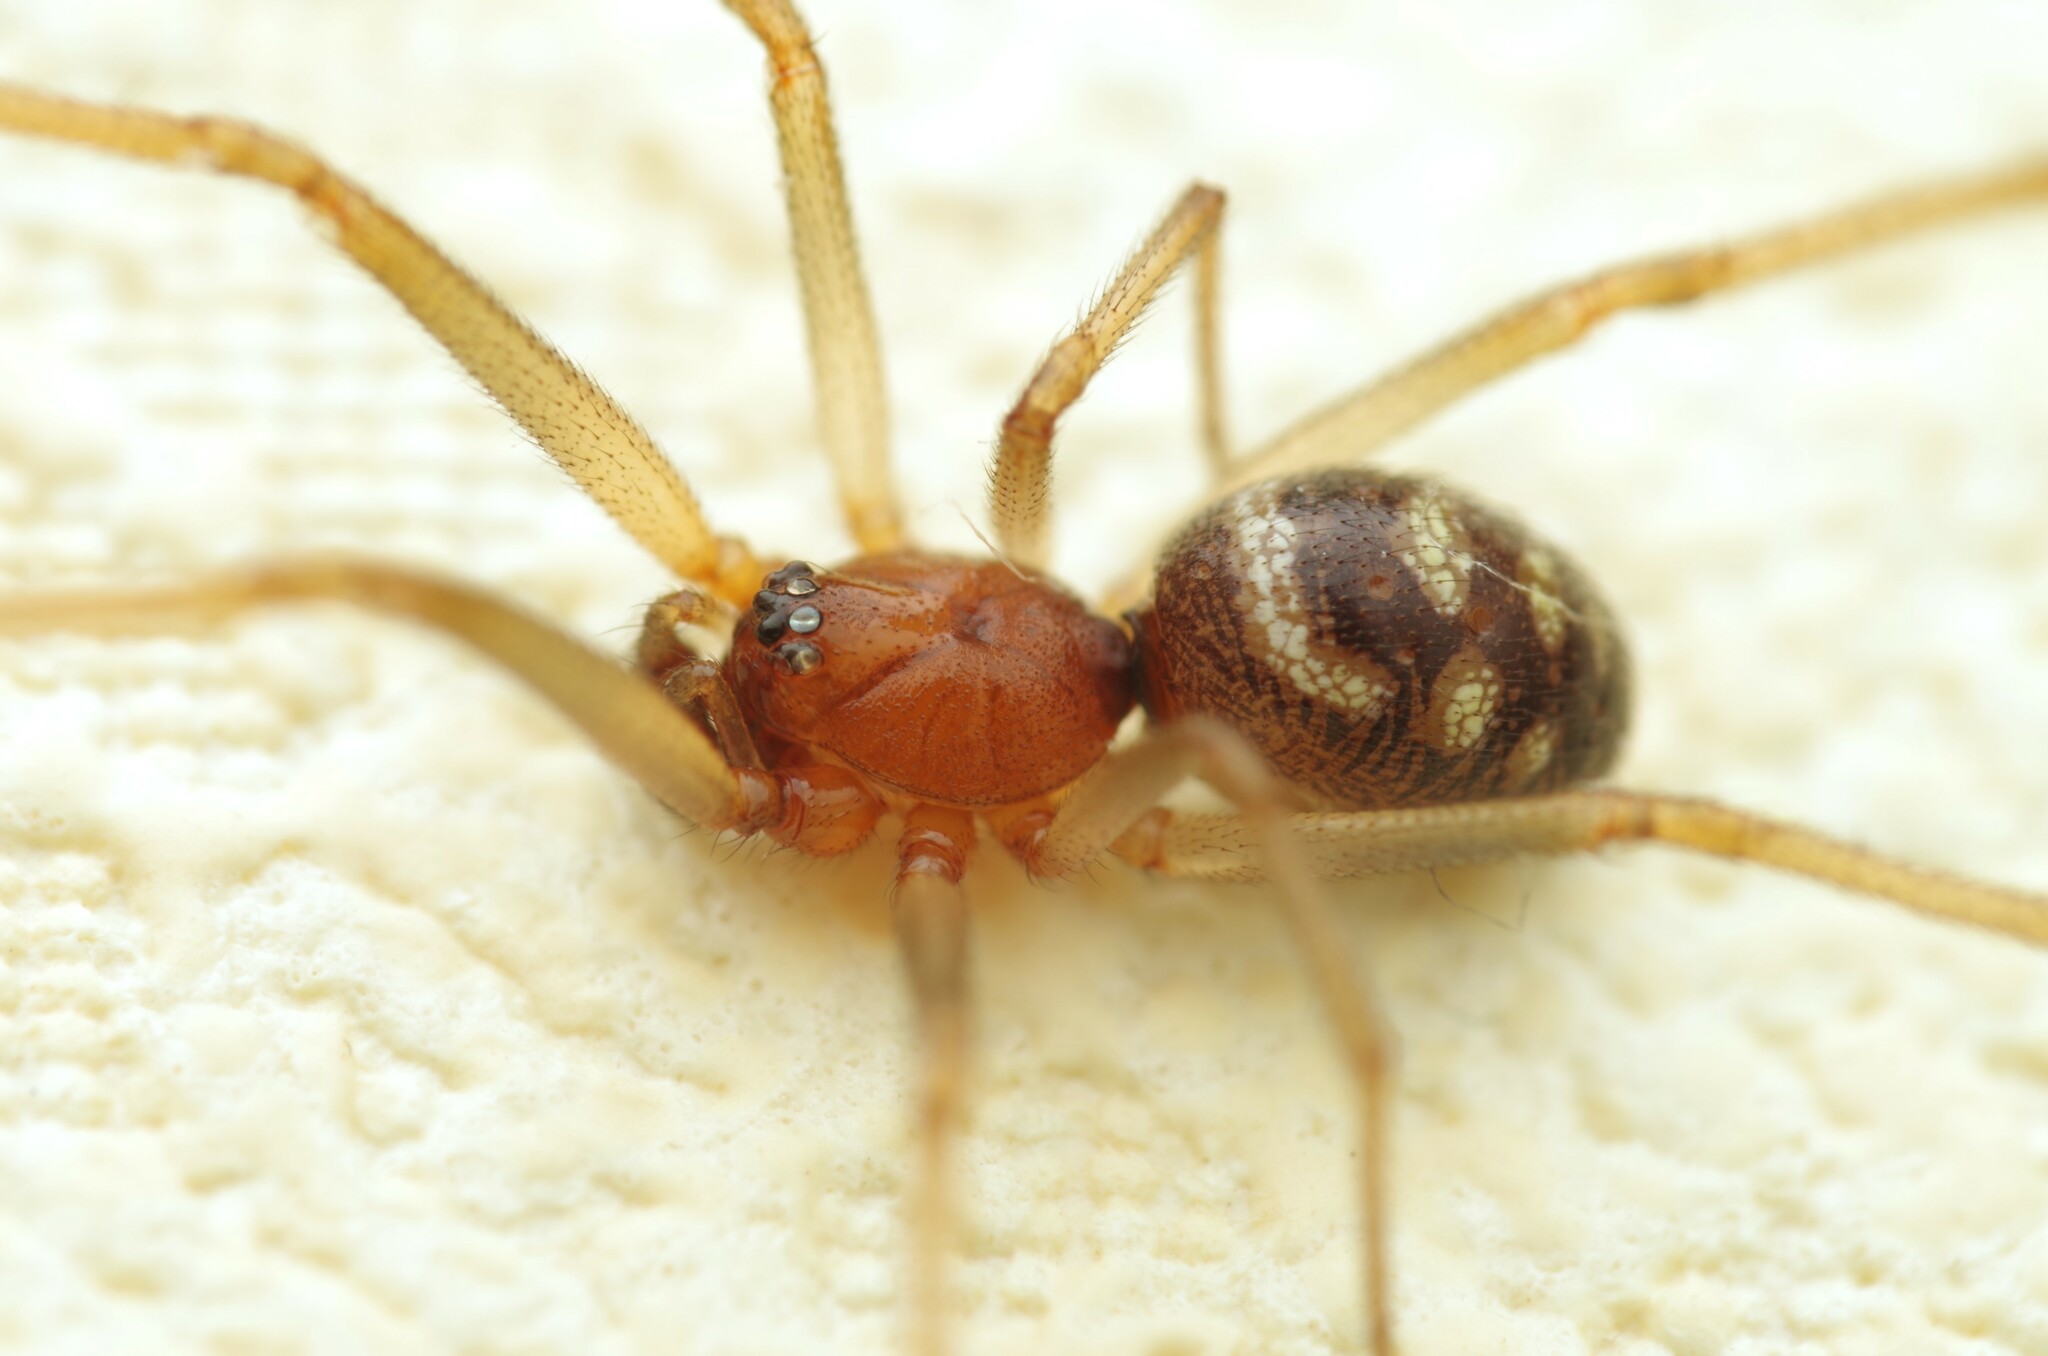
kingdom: Animalia
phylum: Arthropoda
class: Arachnida
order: Araneae
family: Theridiidae
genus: Steatoda
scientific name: Steatoda grossa
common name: False black widow
